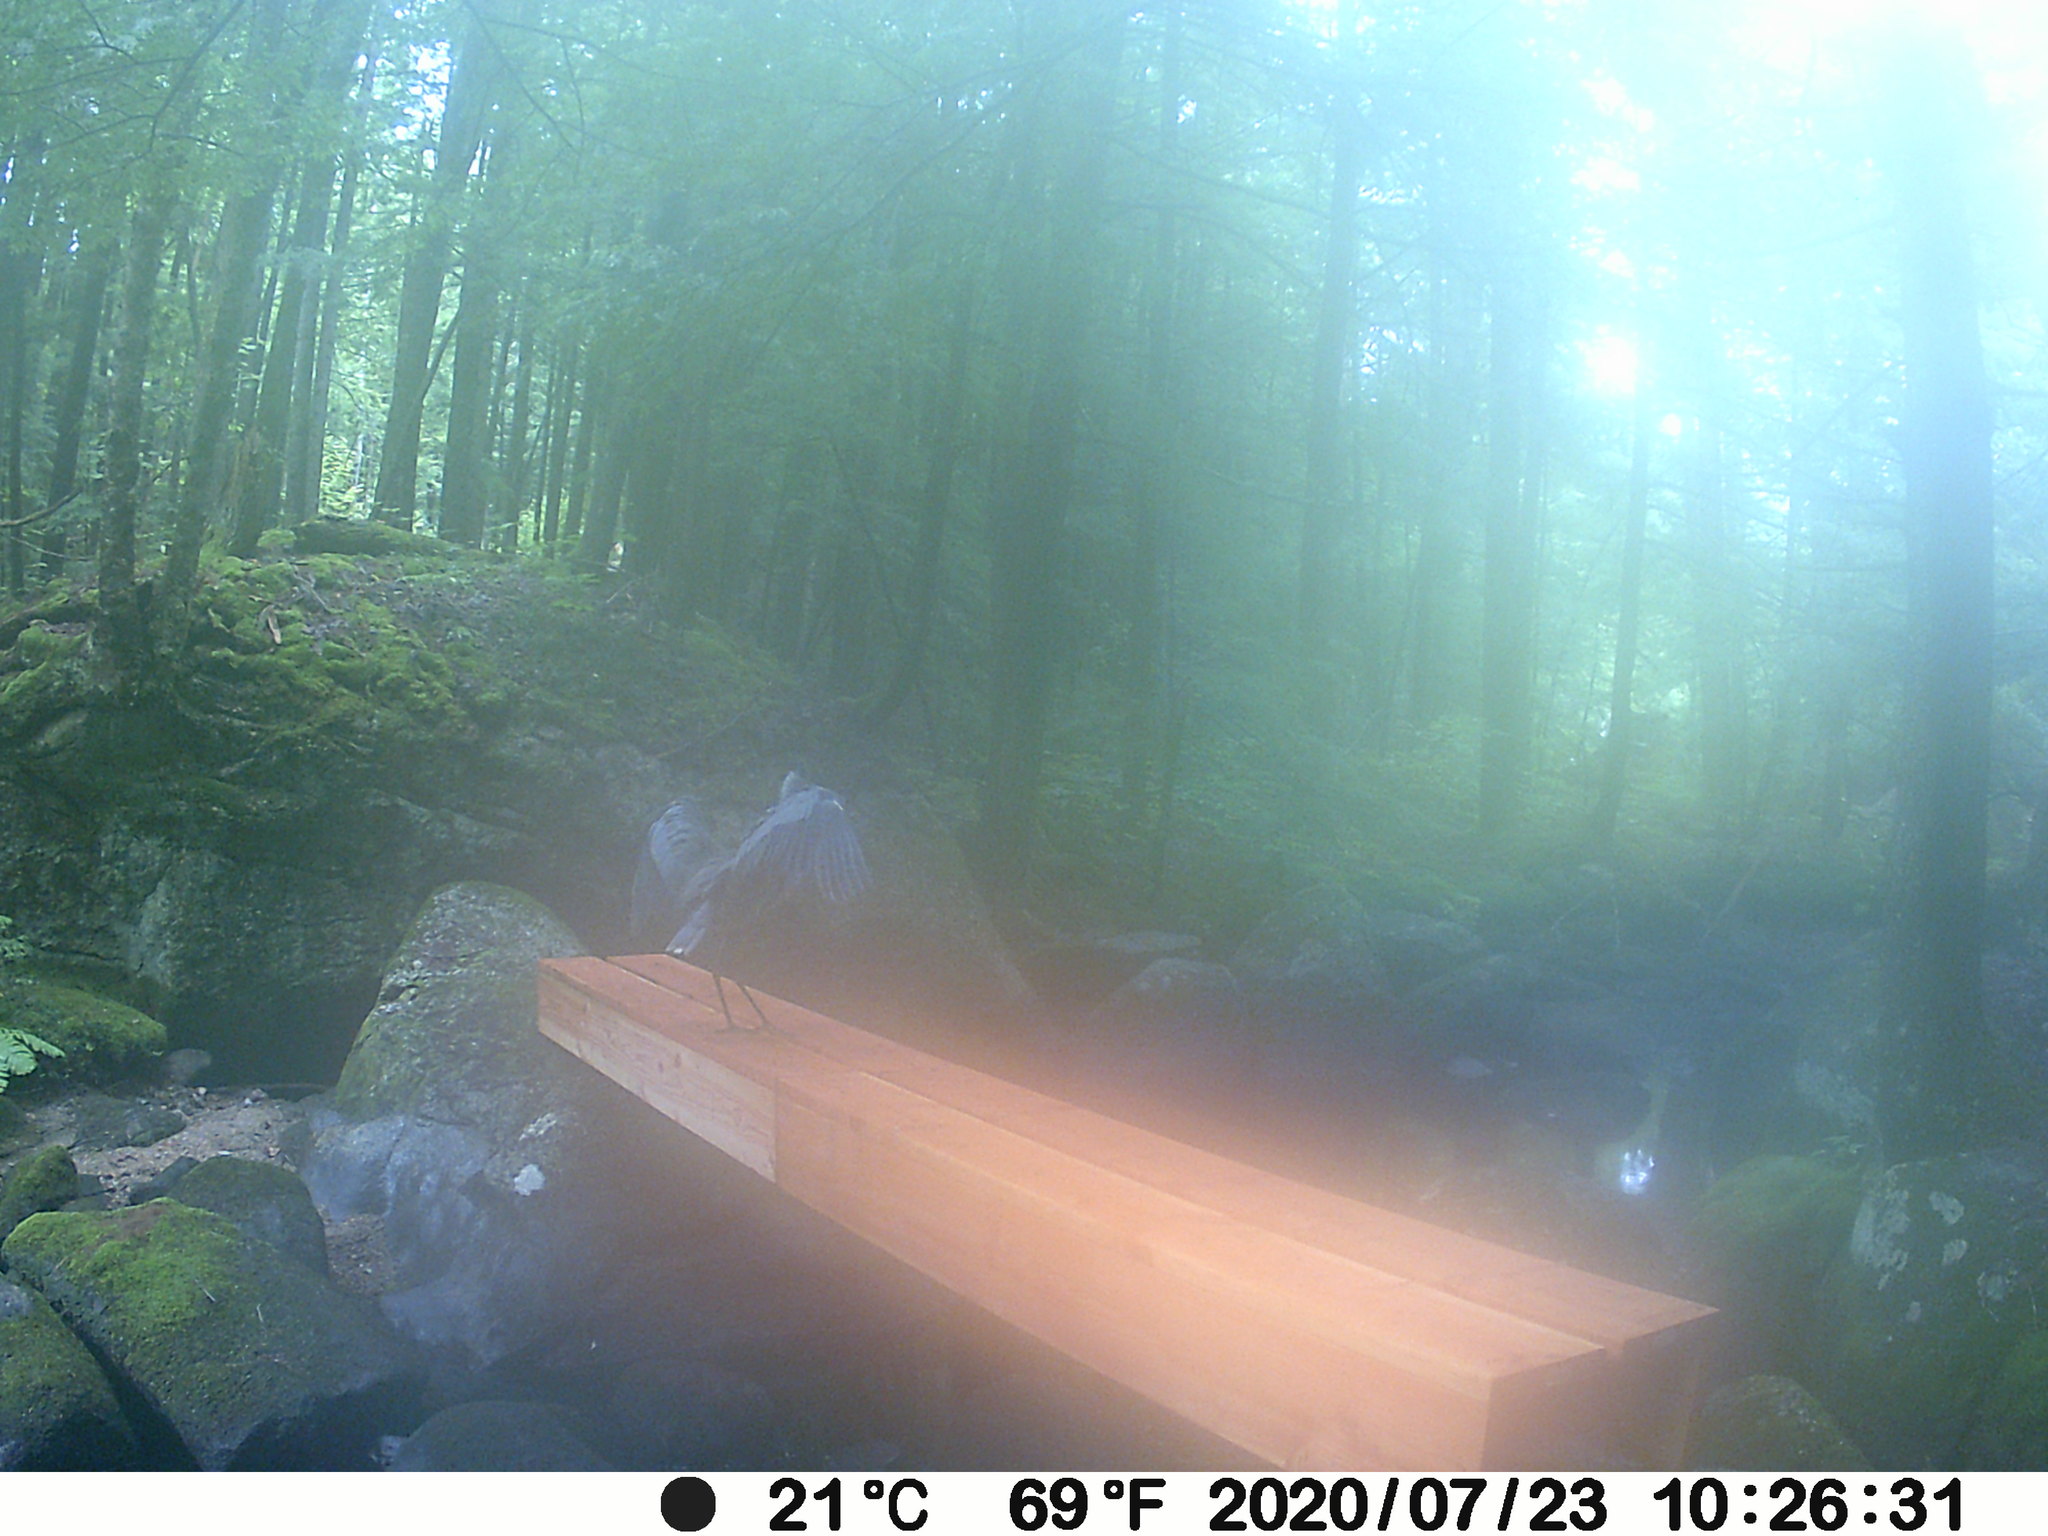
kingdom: Animalia
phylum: Chordata
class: Aves
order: Pelecaniformes
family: Ardeidae
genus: Ardea
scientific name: Ardea herodias
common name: Great blue heron
